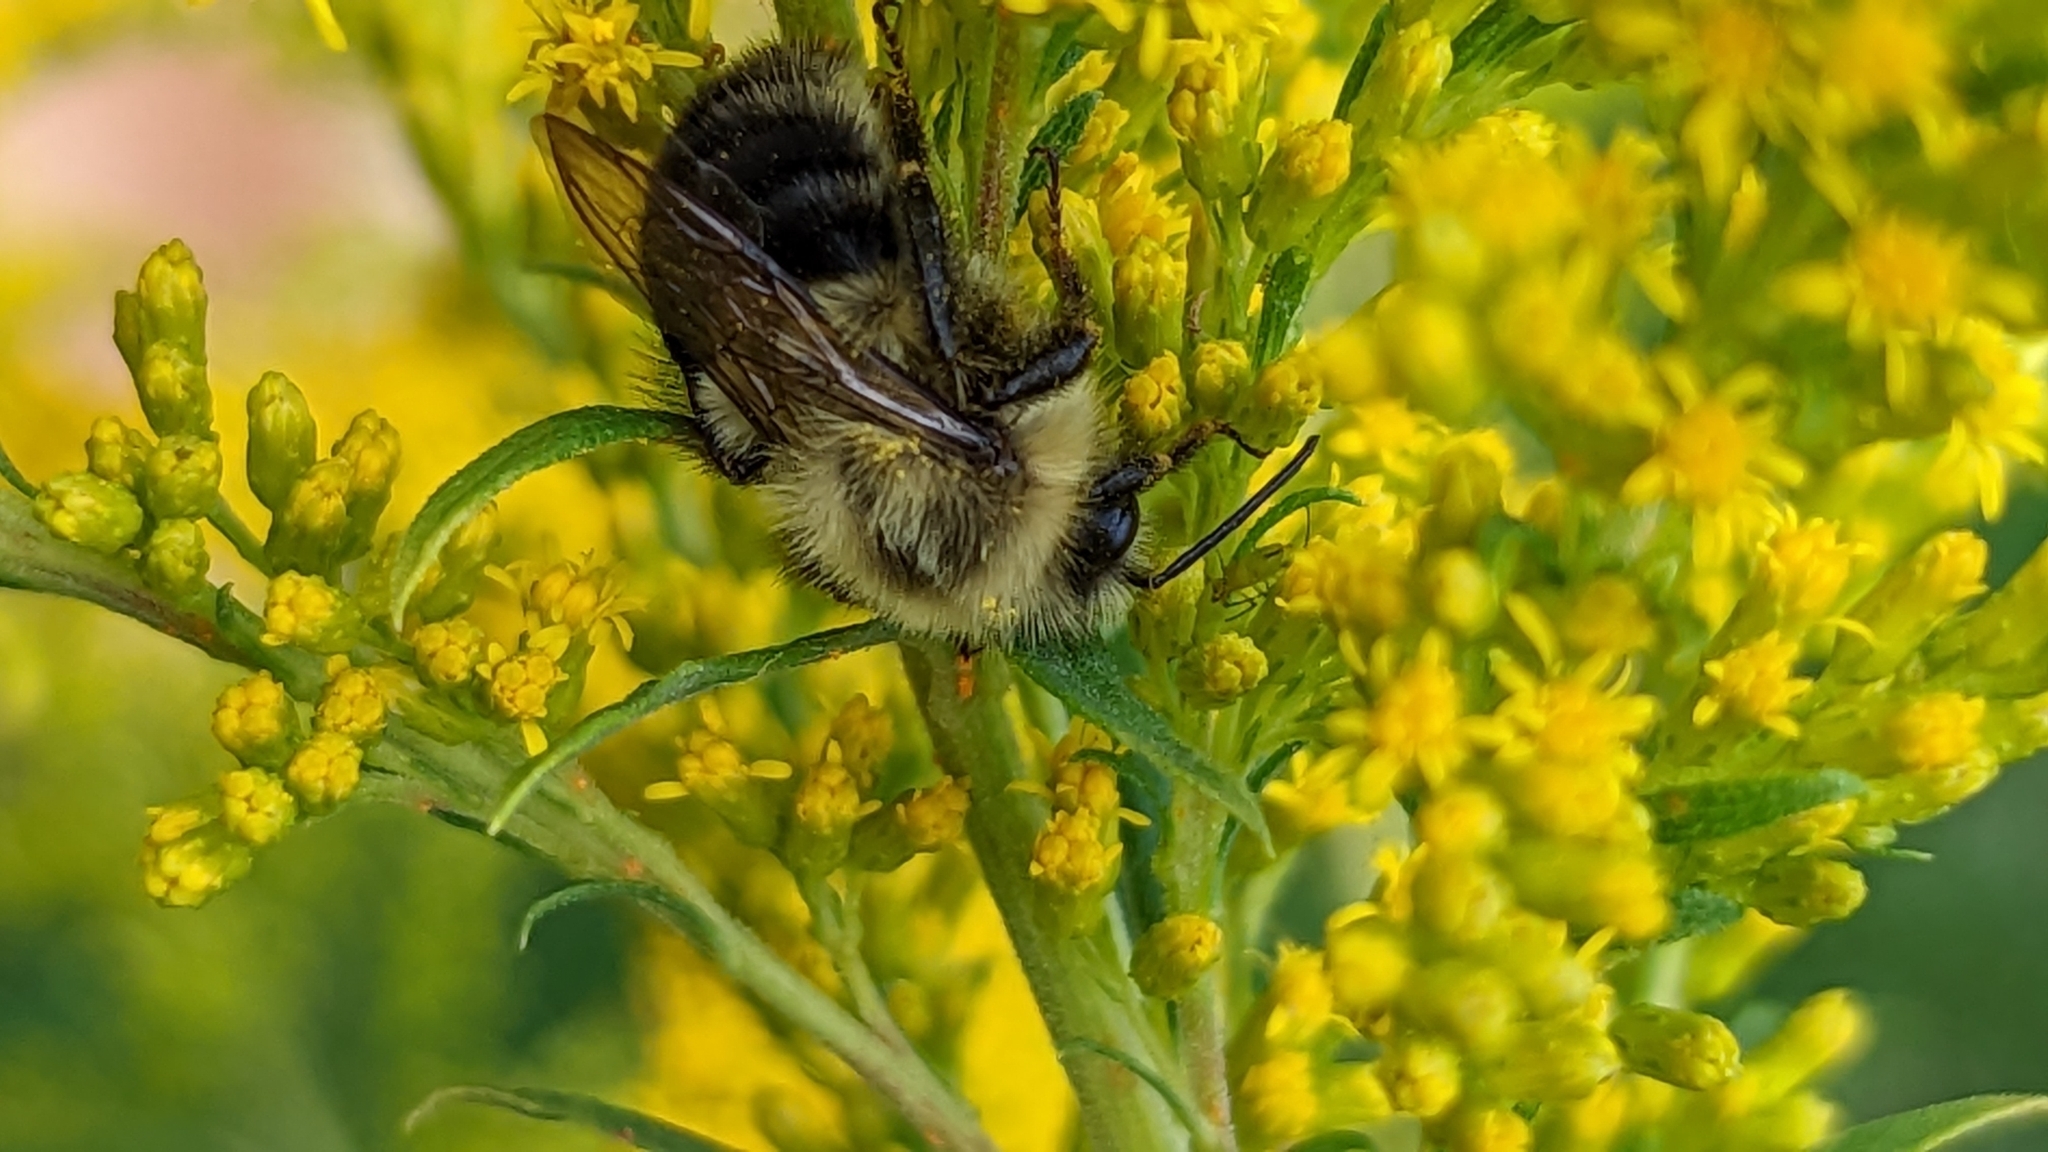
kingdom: Animalia
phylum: Arthropoda
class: Insecta
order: Hymenoptera
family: Apidae
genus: Bombus
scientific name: Bombus impatiens
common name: Common eastern bumble bee
